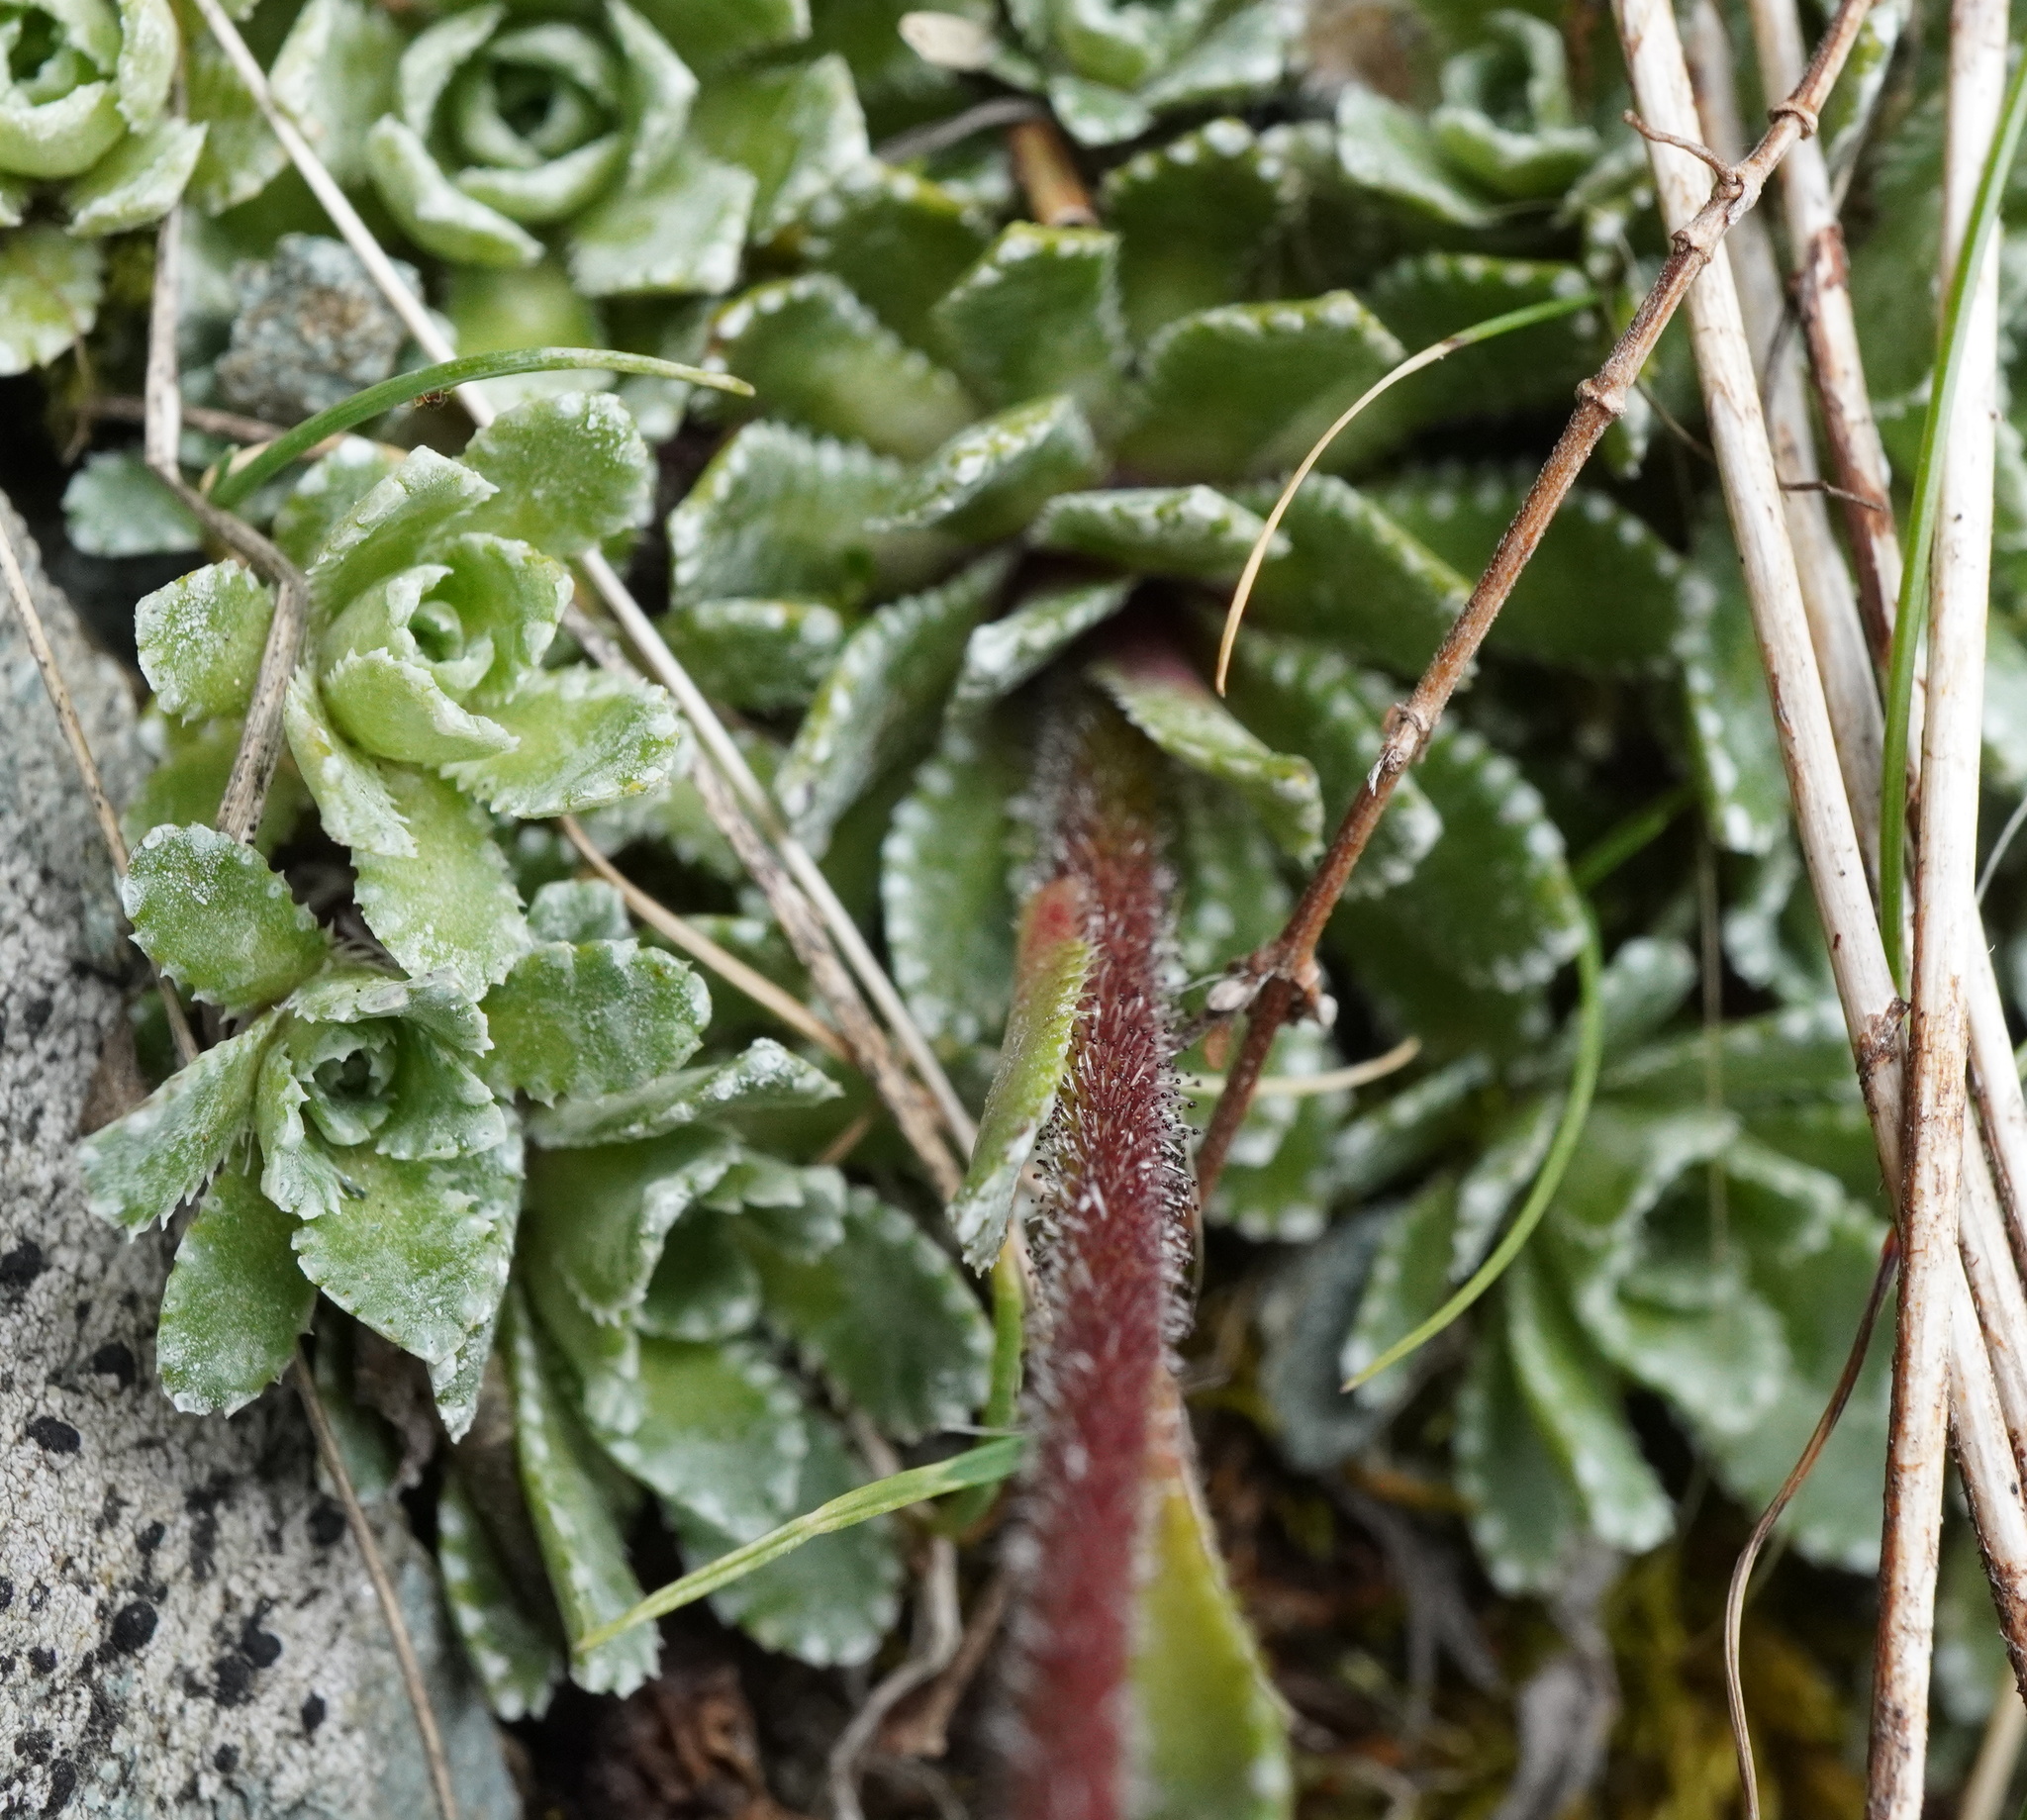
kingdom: Plantae
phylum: Tracheophyta
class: Magnoliopsida
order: Saxifragales
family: Saxifragaceae
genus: Saxifraga
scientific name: Saxifraga paniculata
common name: Livelong saxifrage
